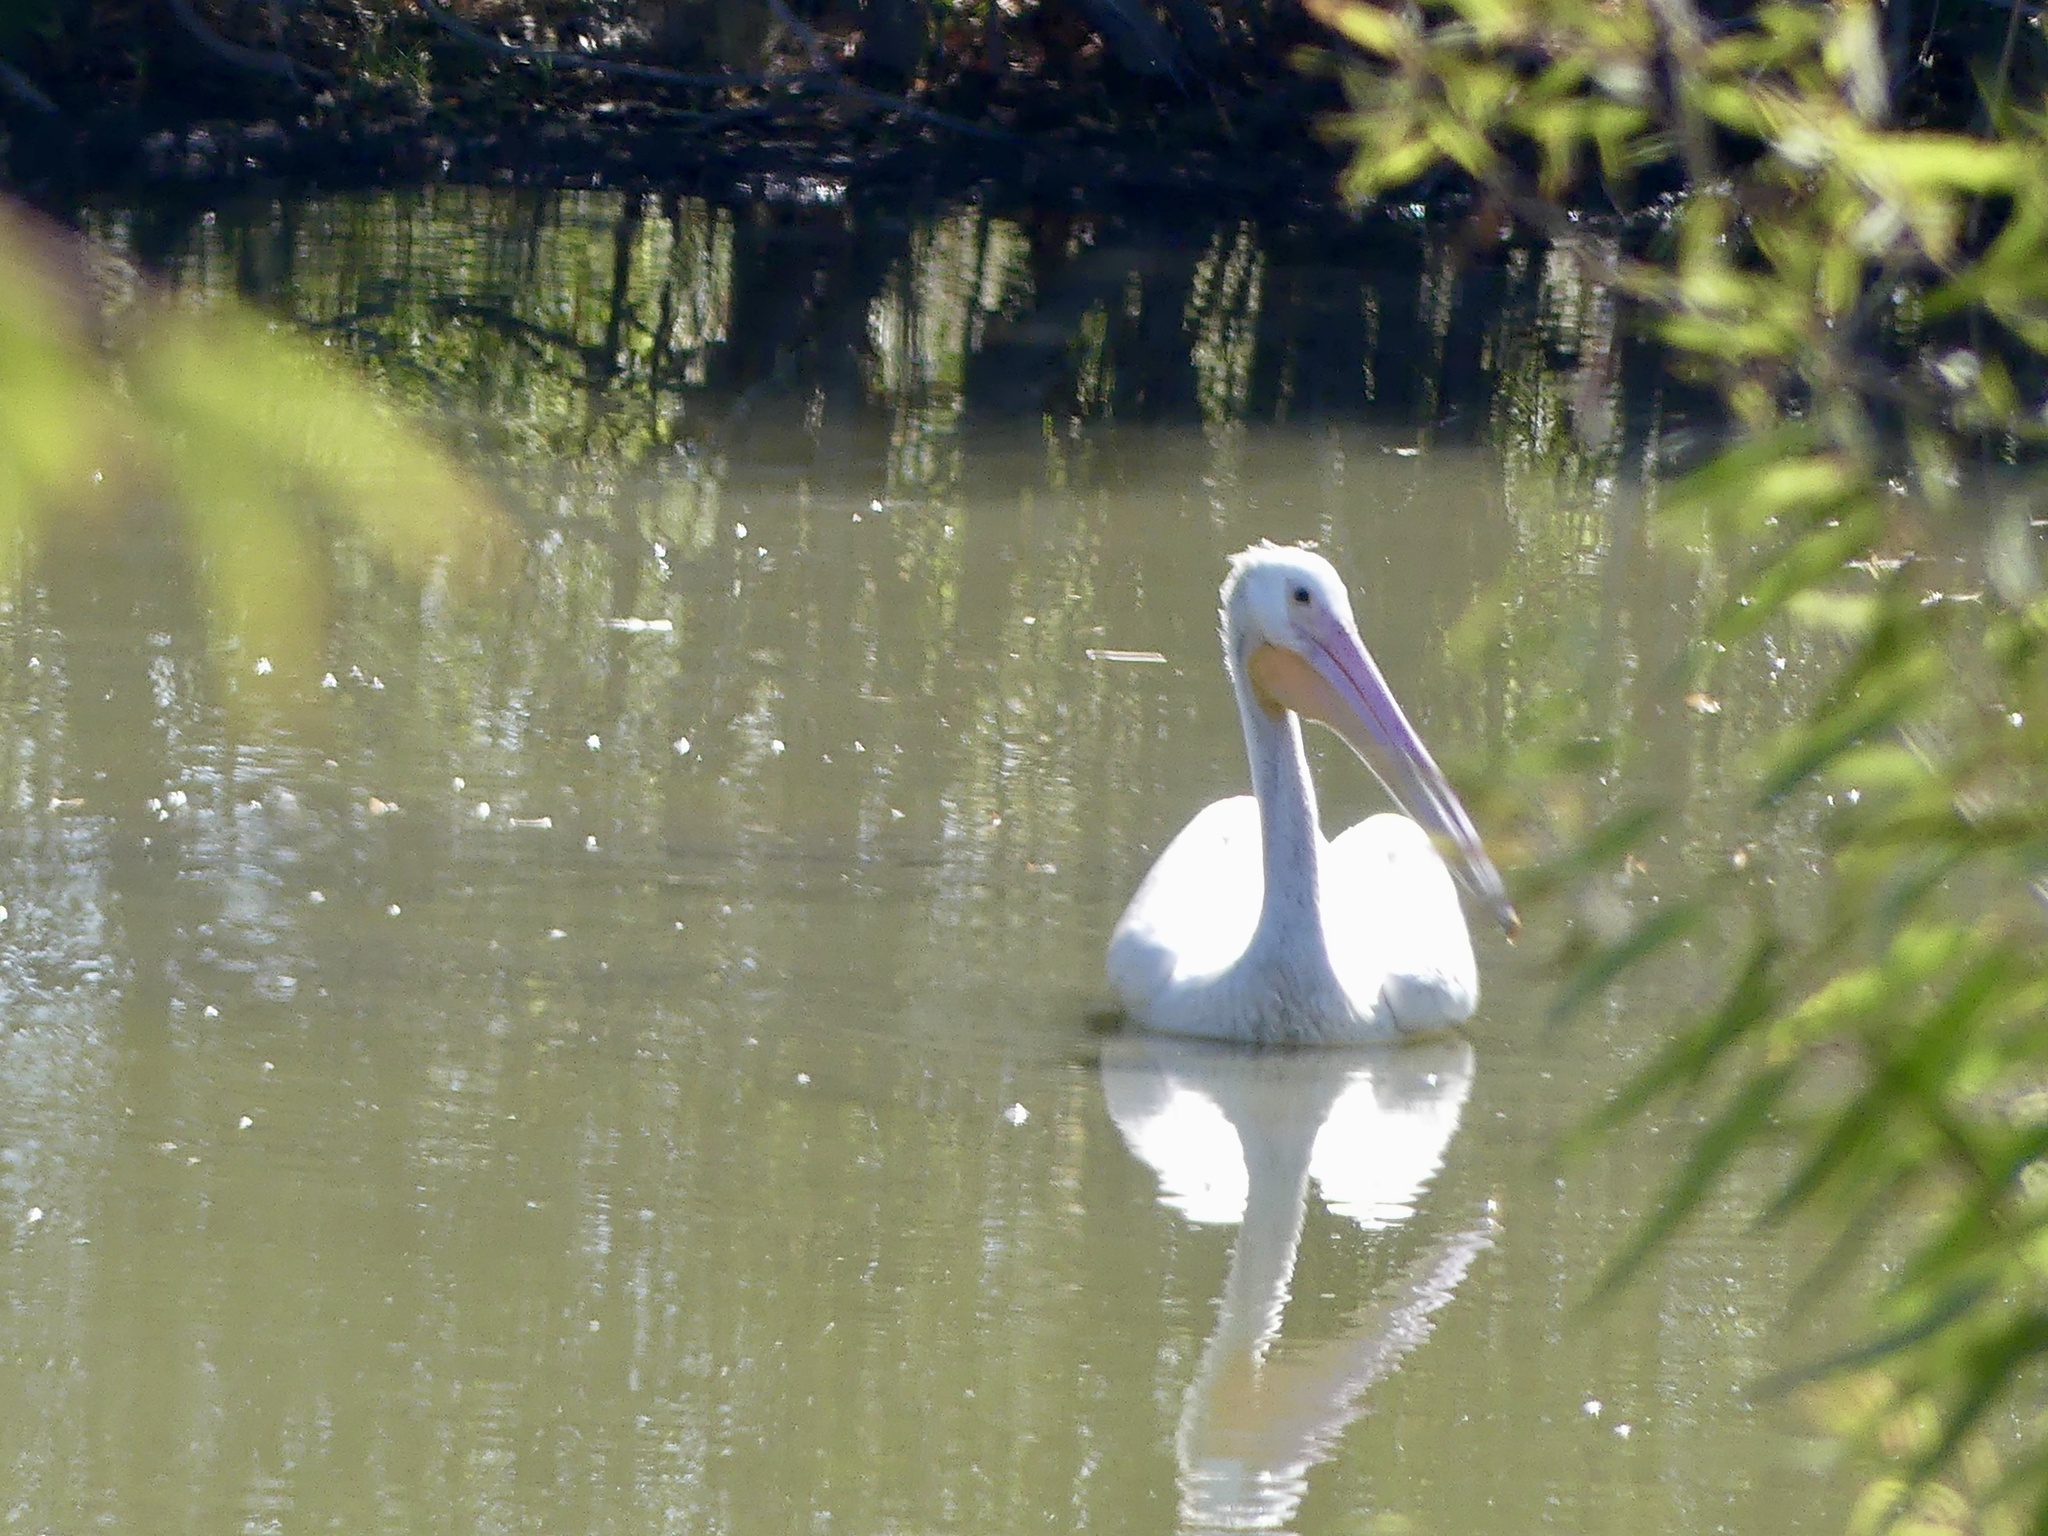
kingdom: Animalia
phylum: Chordata
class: Aves
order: Pelecaniformes
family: Pelecanidae
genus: Pelecanus
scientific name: Pelecanus erythrorhynchos
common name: American white pelican
